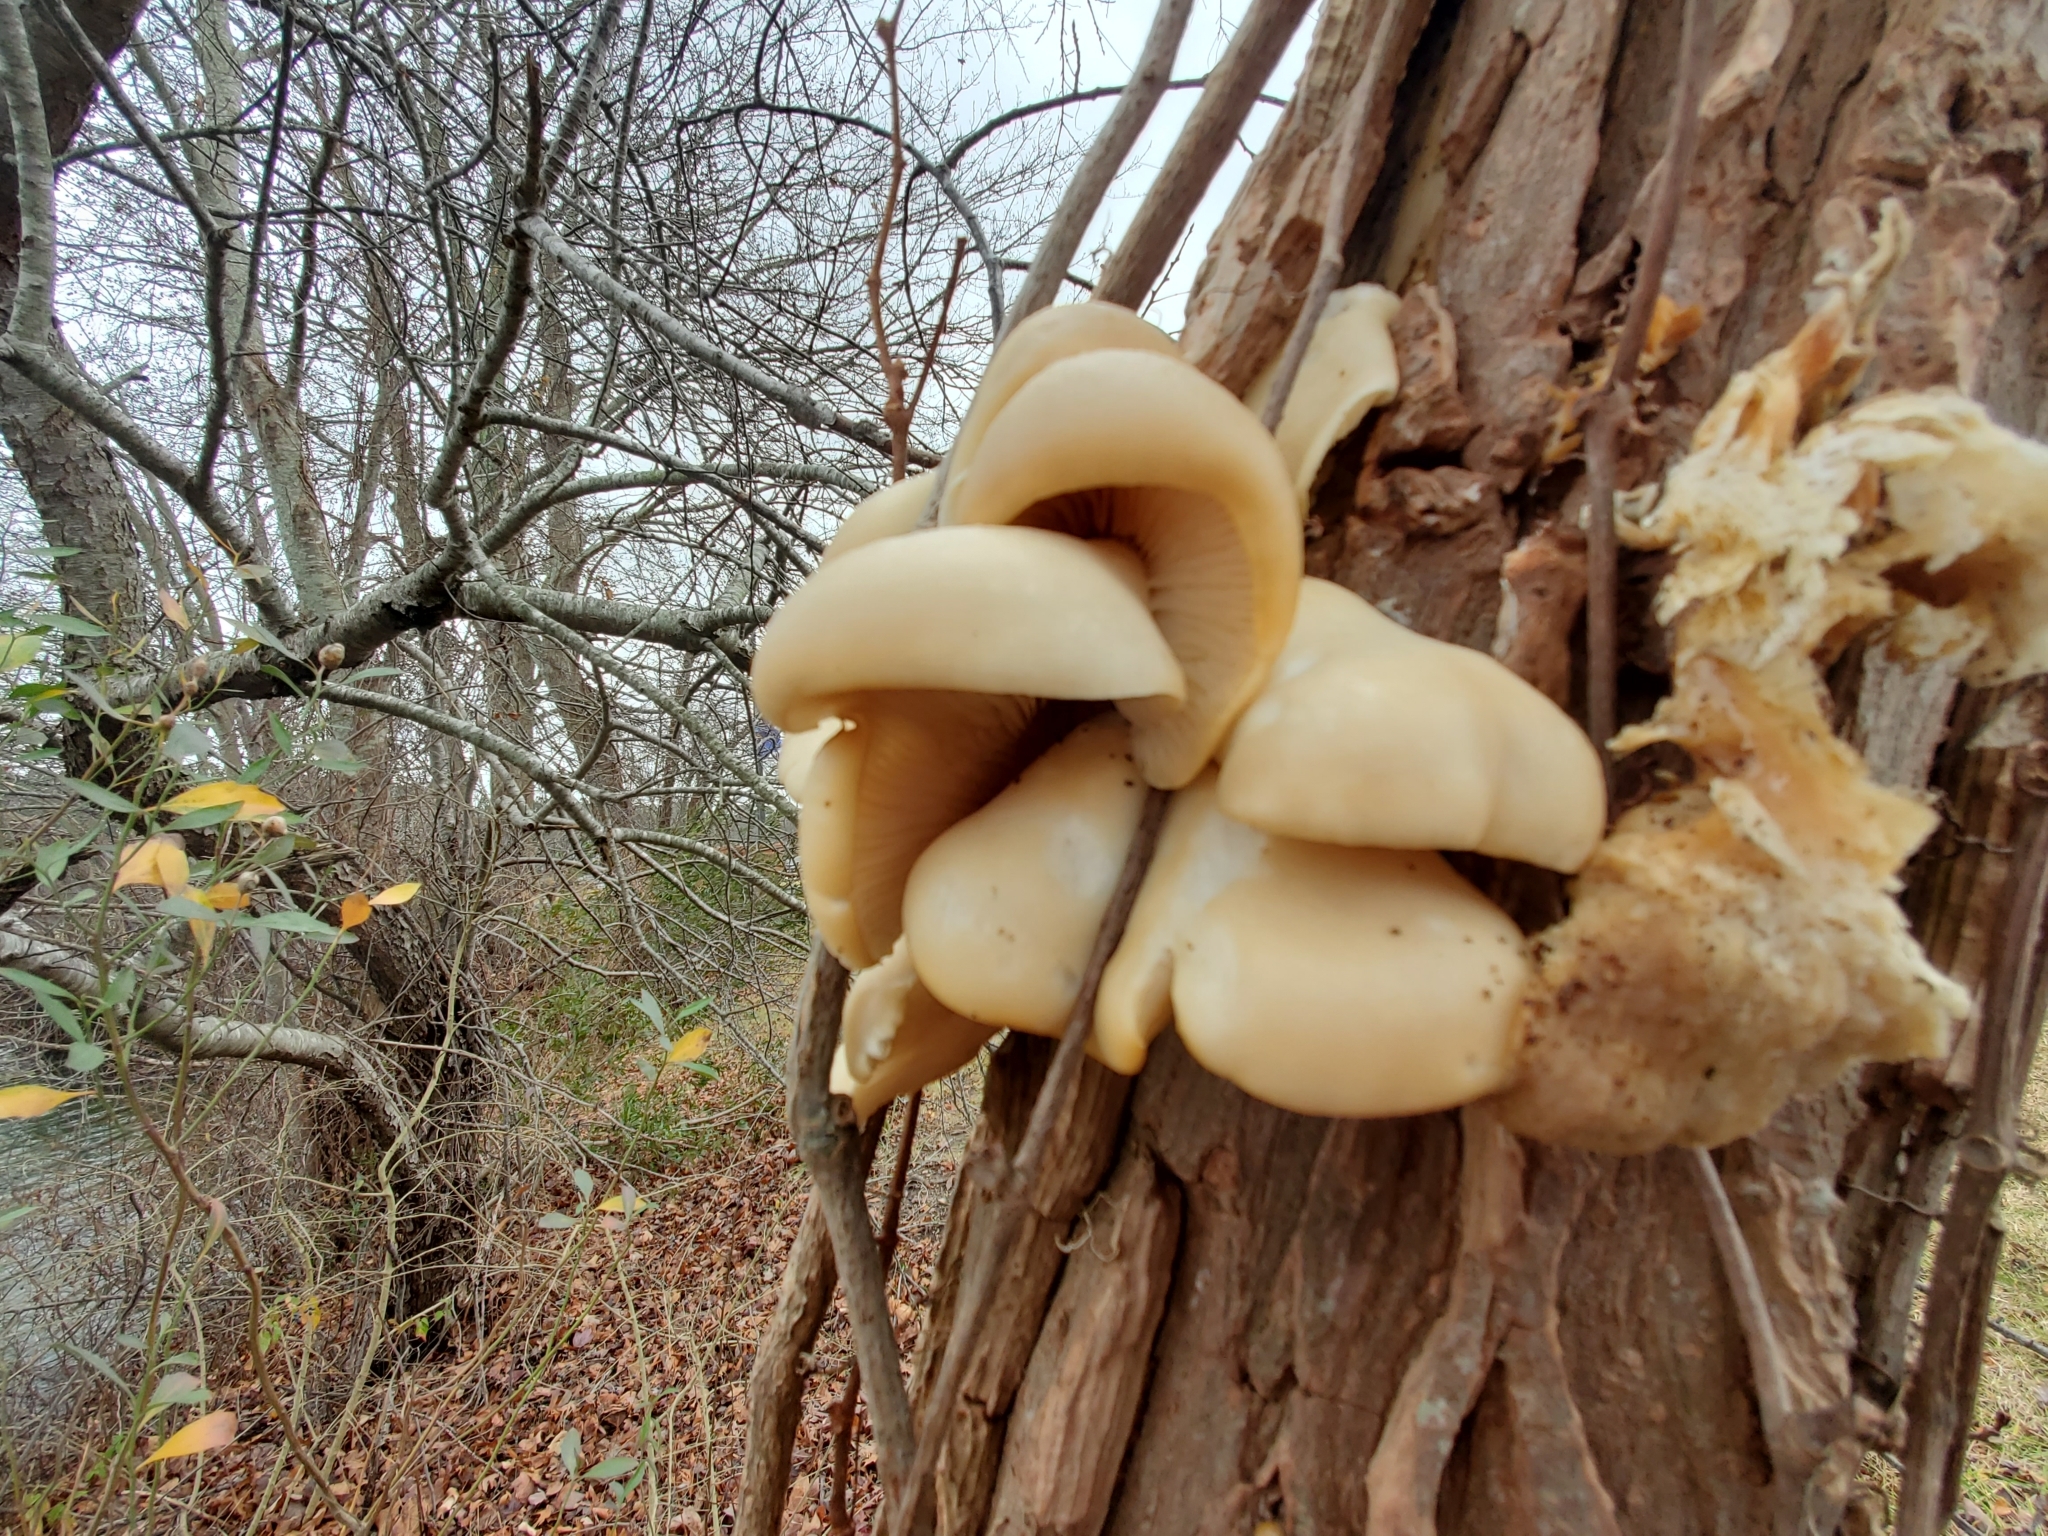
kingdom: Fungi
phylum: Basidiomycota
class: Agaricomycetes
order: Agaricales
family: Pleurotaceae
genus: Pleurotus
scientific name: Pleurotus ostreatus
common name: Oyster mushroom
